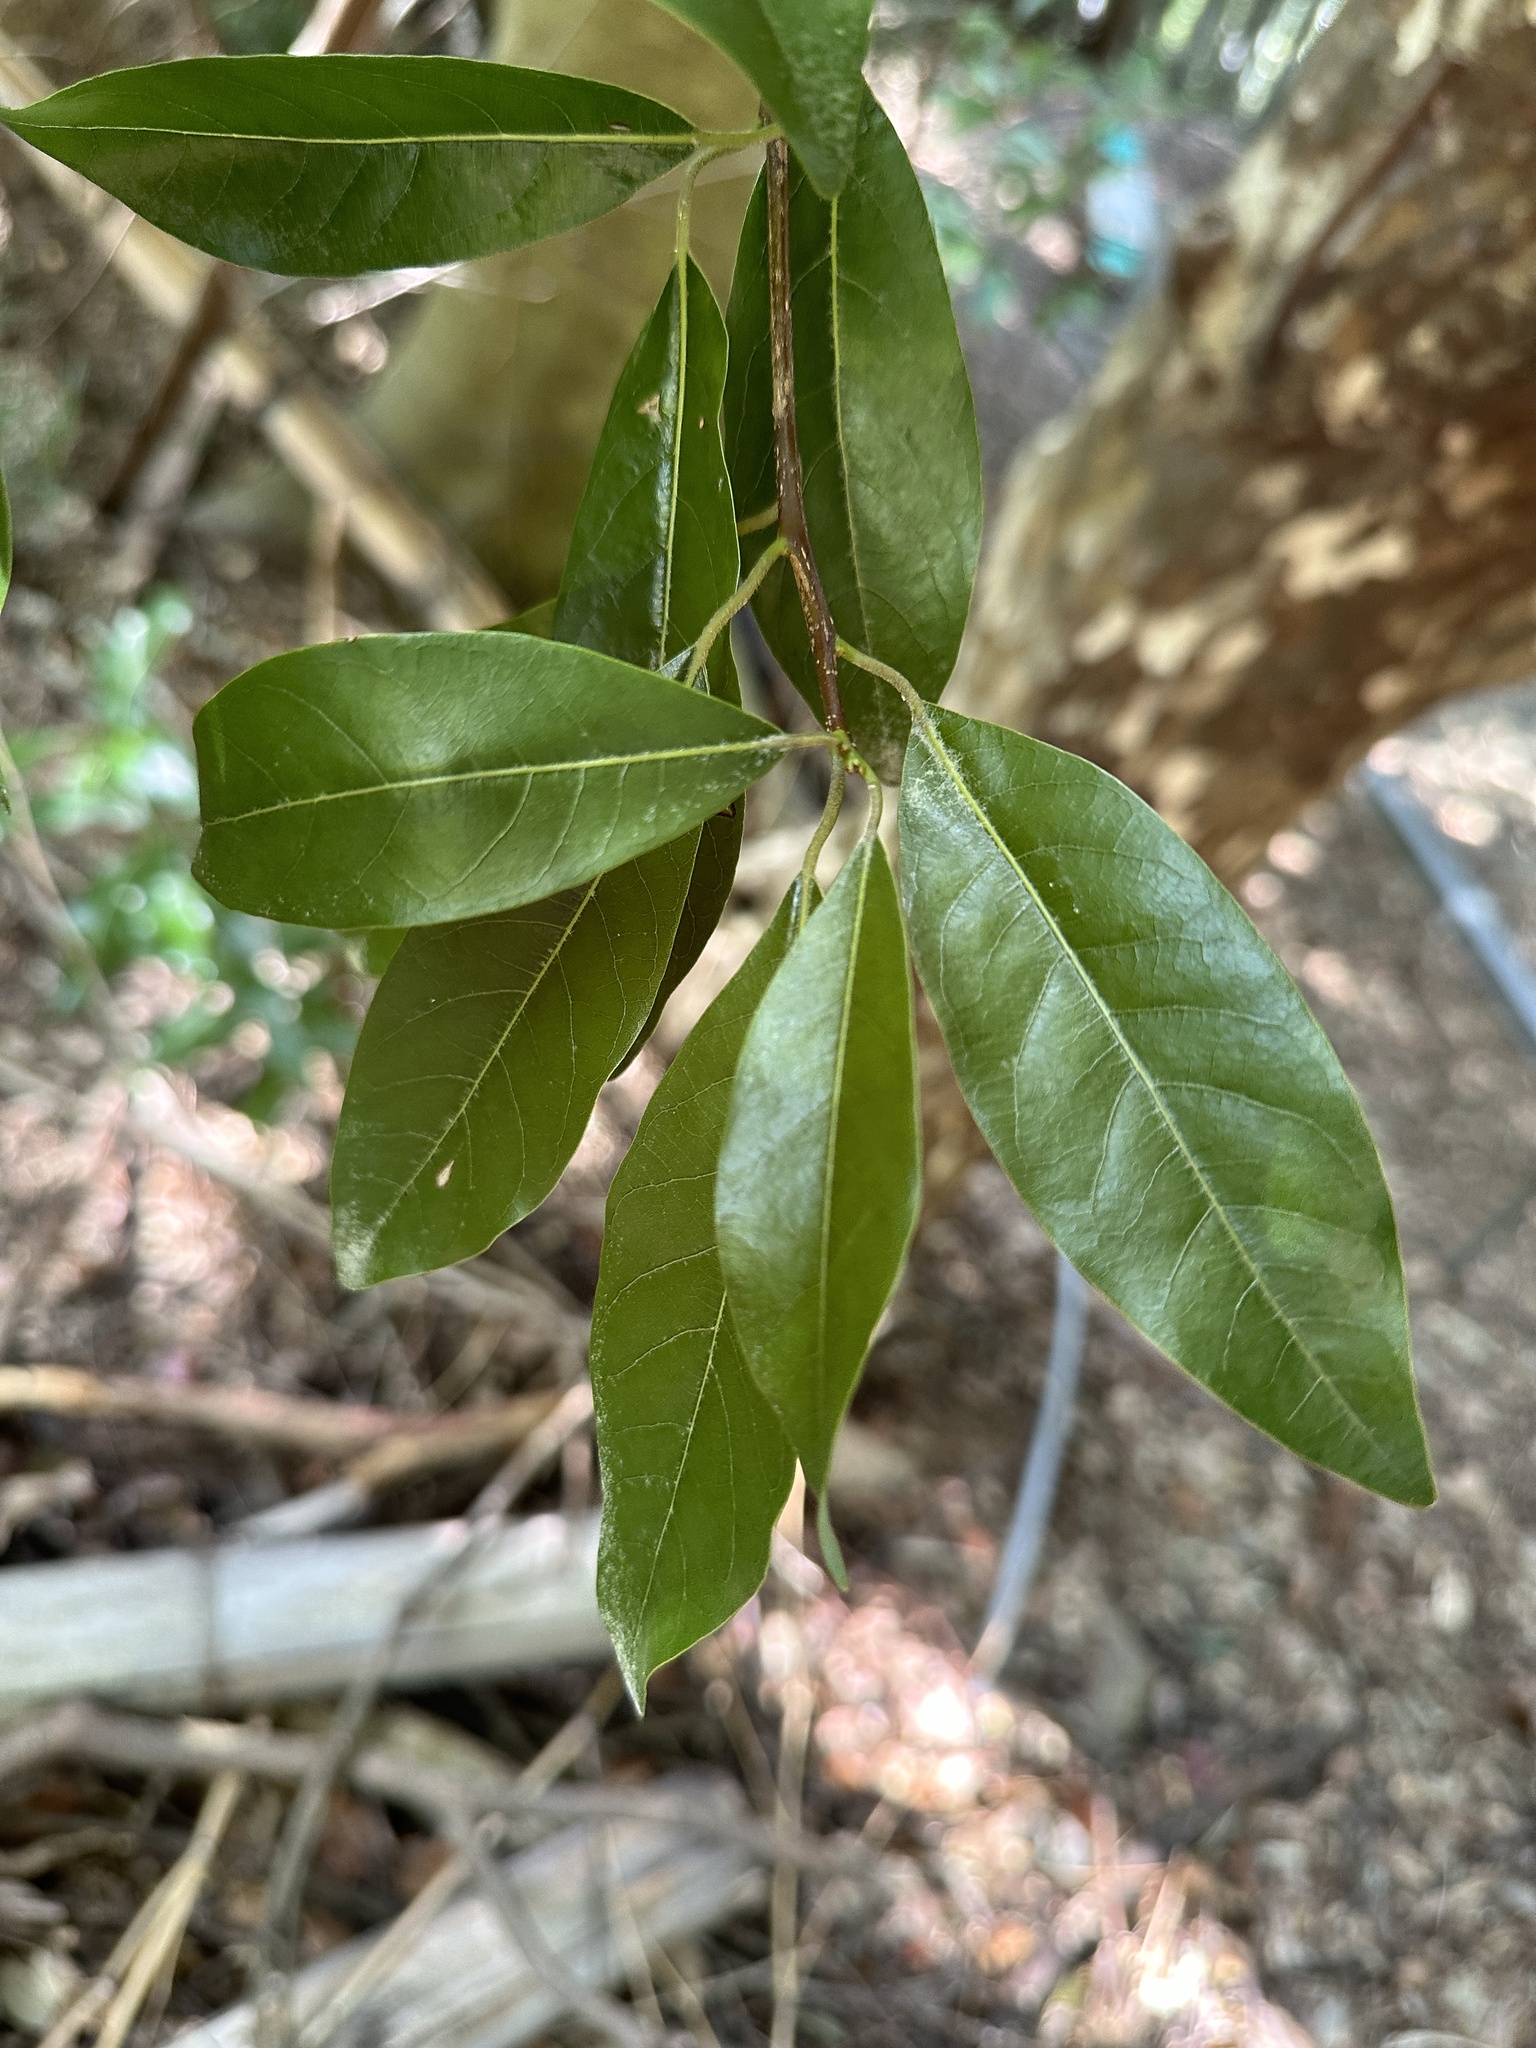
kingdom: Plantae
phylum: Tracheophyta
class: Magnoliopsida
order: Laurales
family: Lauraceae
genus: Litsea
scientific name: Litsea coreana
